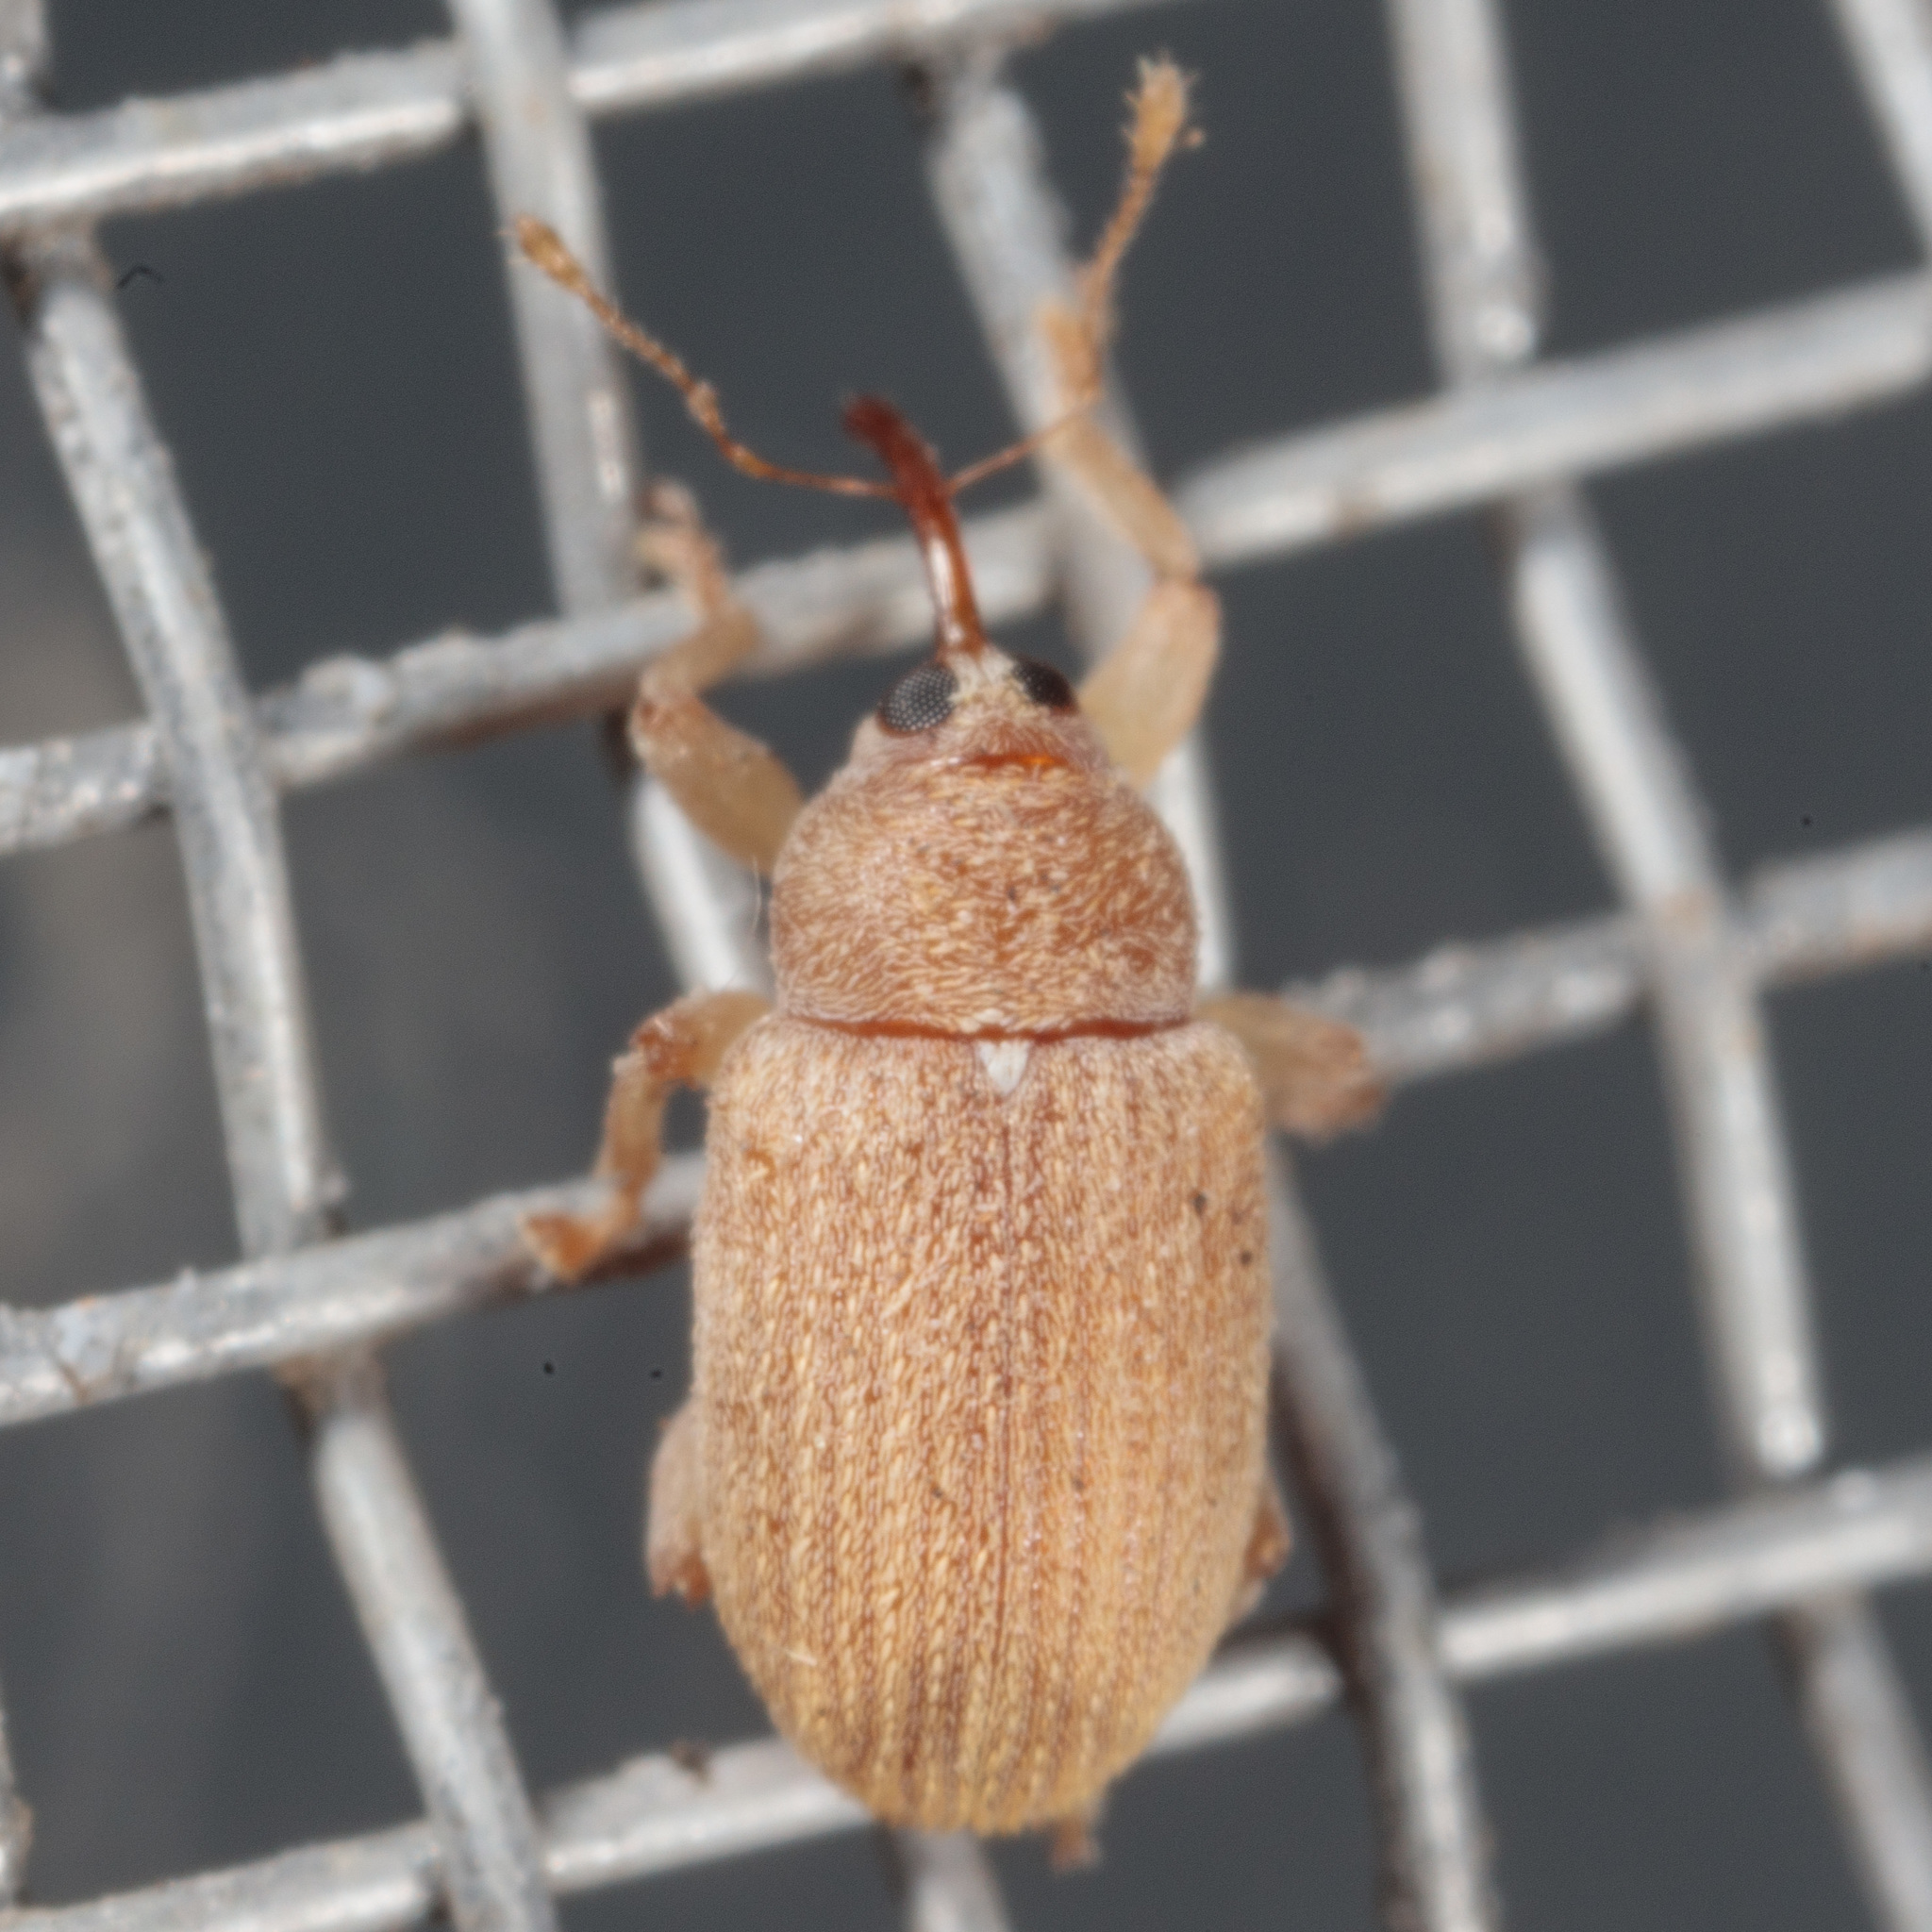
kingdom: Animalia
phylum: Arthropoda
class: Insecta
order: Coleoptera
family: Curculionidae
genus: Lignyodes
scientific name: Lignyodes helvolus
